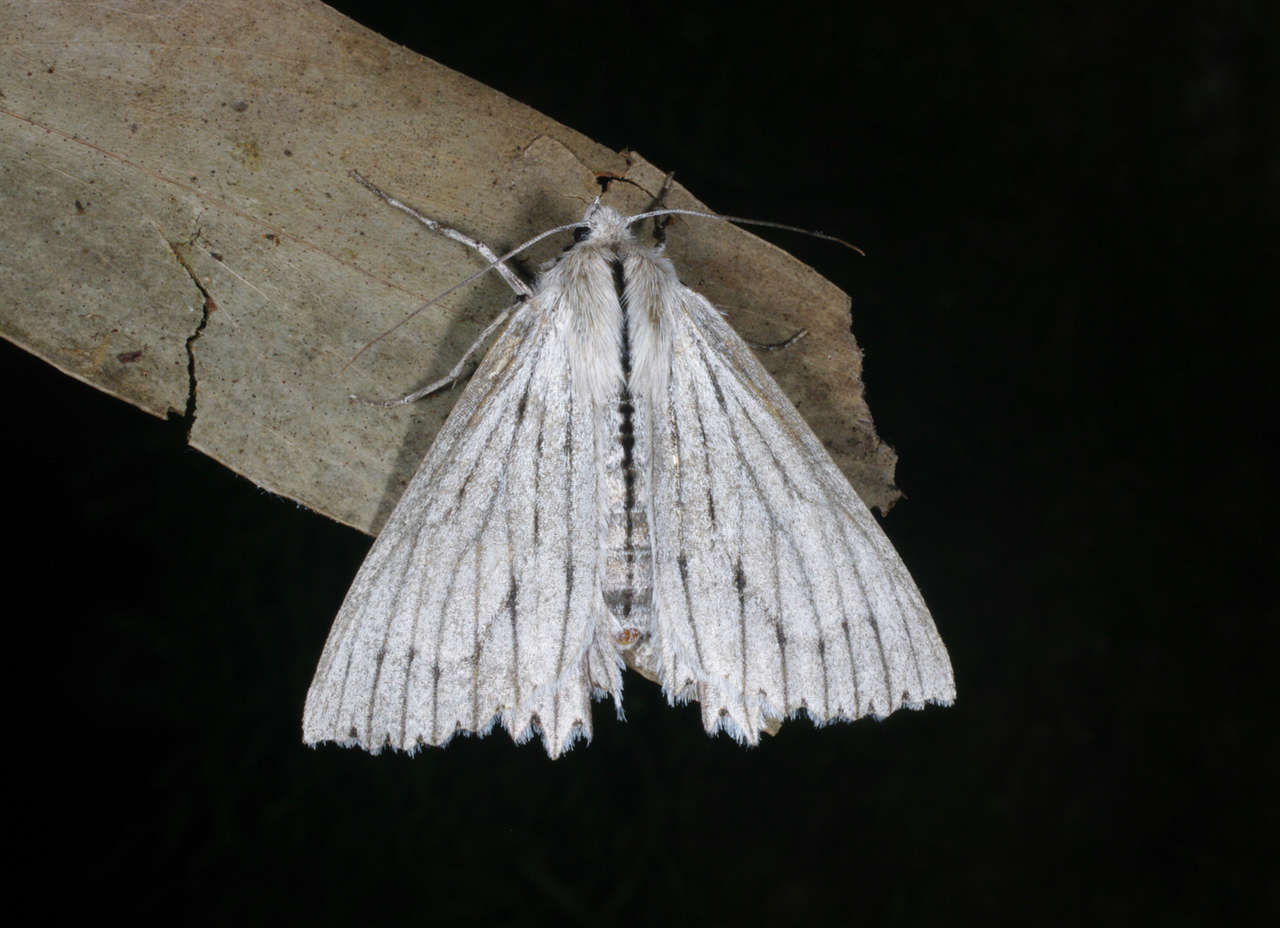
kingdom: Animalia
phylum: Arthropoda
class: Insecta
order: Lepidoptera
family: Geometridae
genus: Paraterpna
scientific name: Paraterpna
